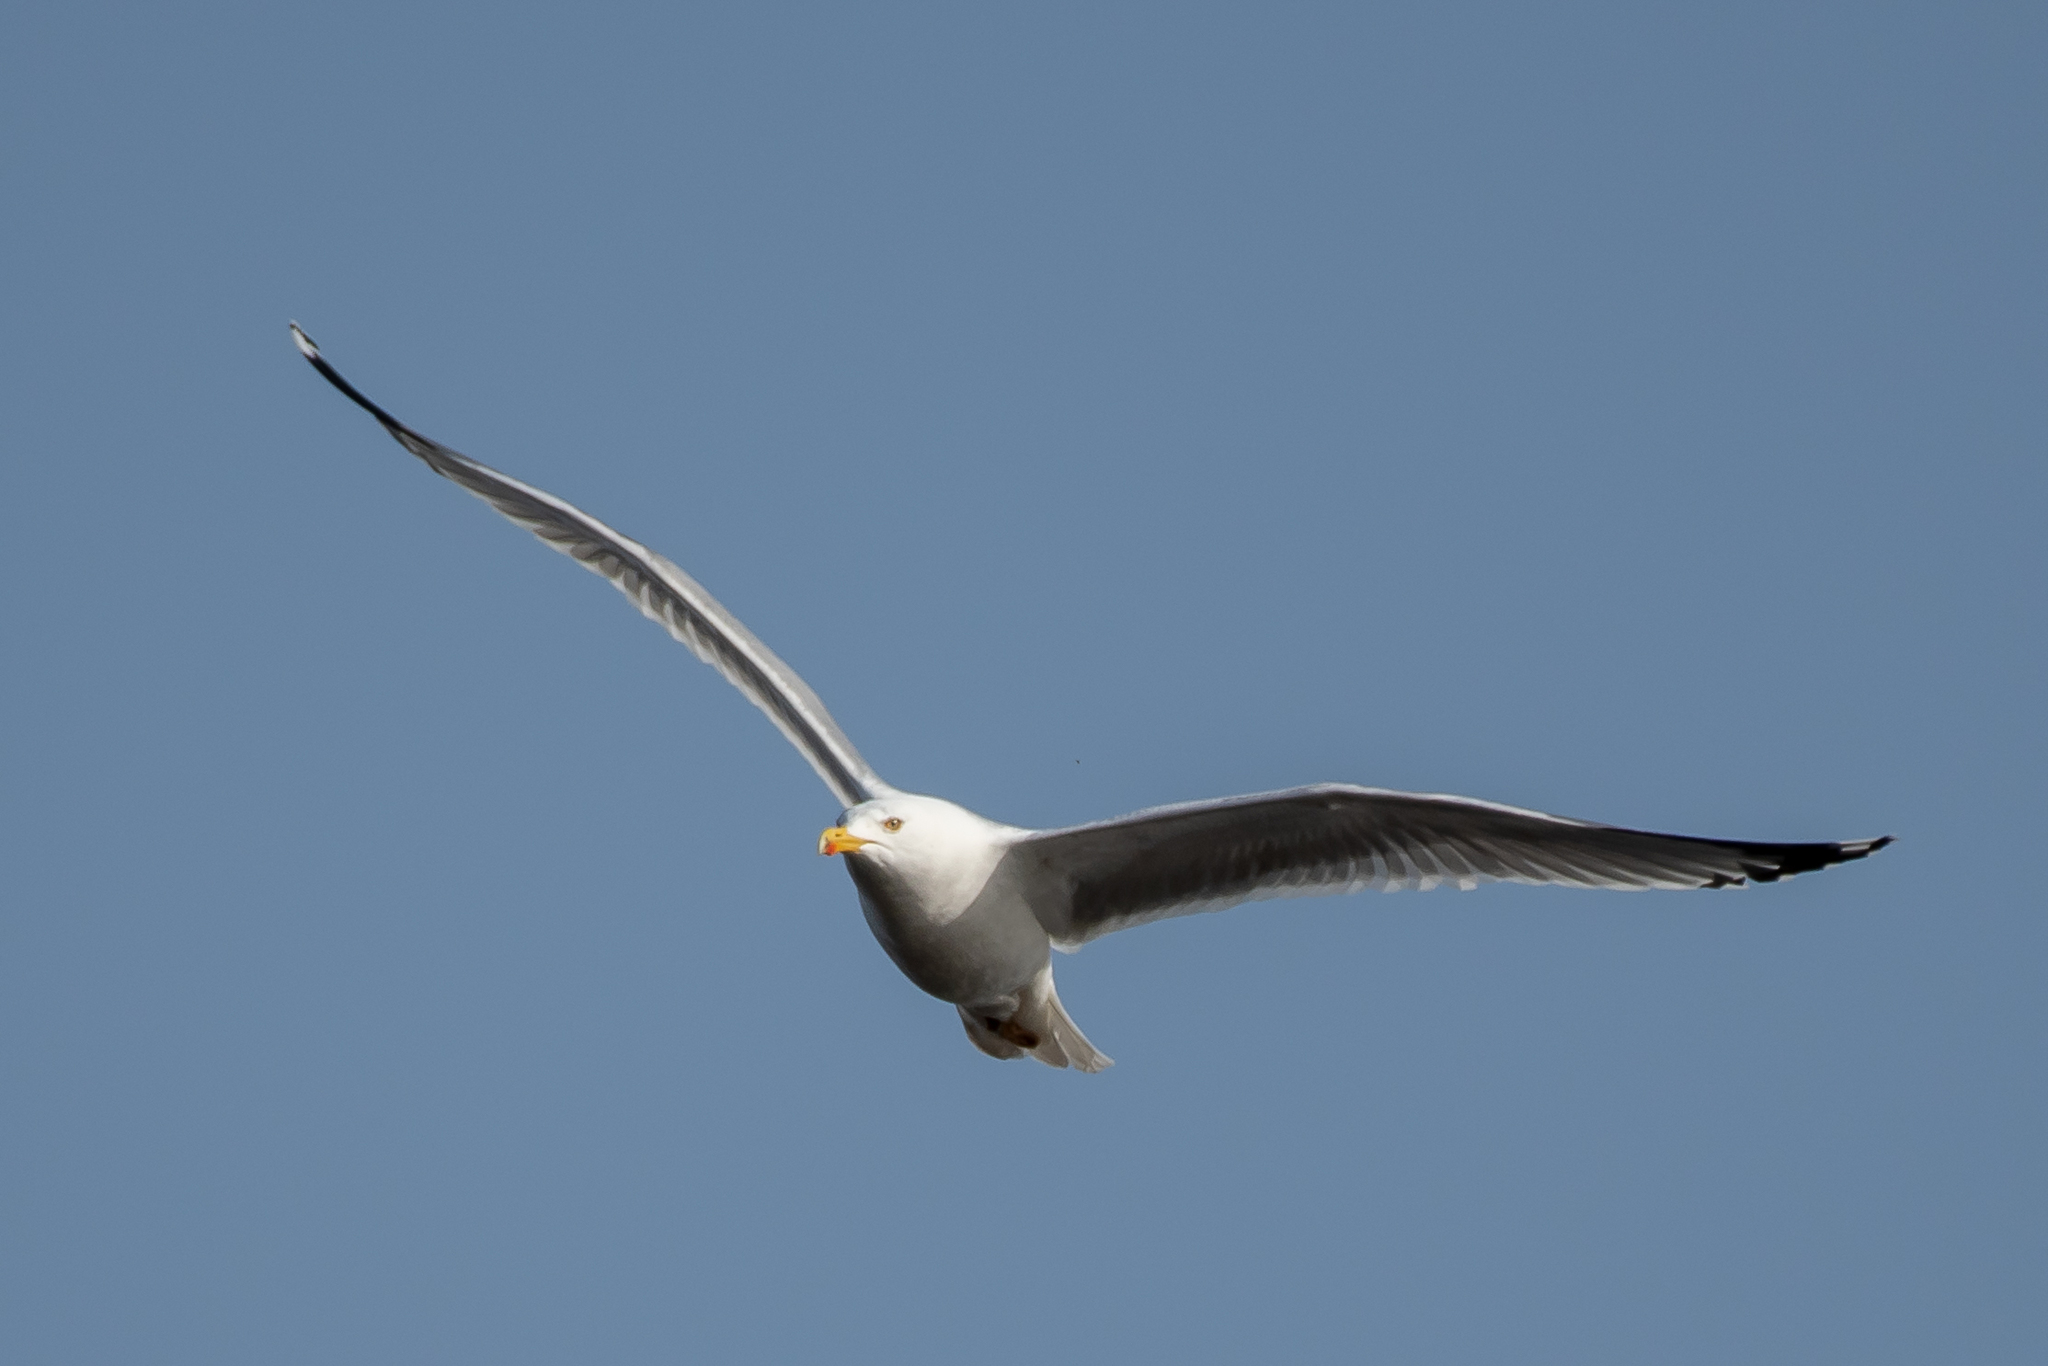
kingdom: Animalia
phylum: Chordata
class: Aves
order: Charadriiformes
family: Laridae
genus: Larus
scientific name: Larus argentatus
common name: Herring gull
